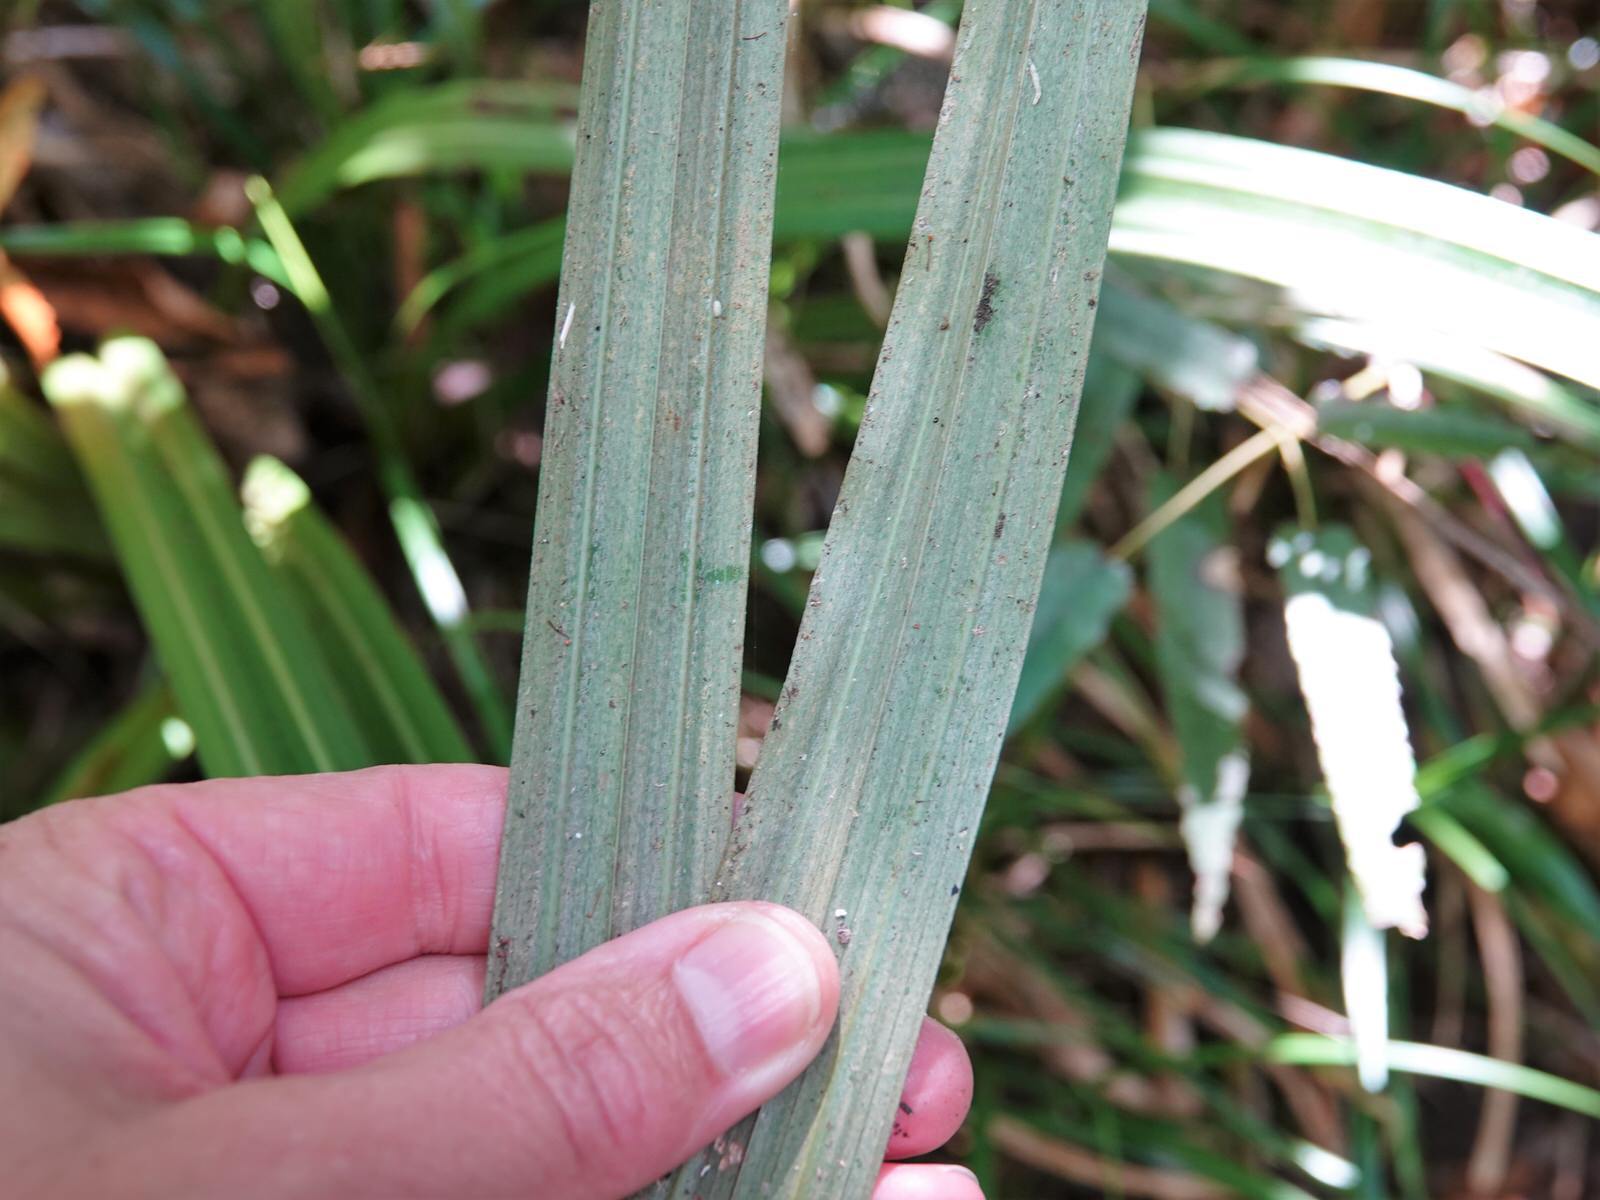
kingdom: Plantae
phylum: Tracheophyta
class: Liliopsida
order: Asparagales
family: Asteliaceae
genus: Astelia
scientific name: Astelia fragrans
